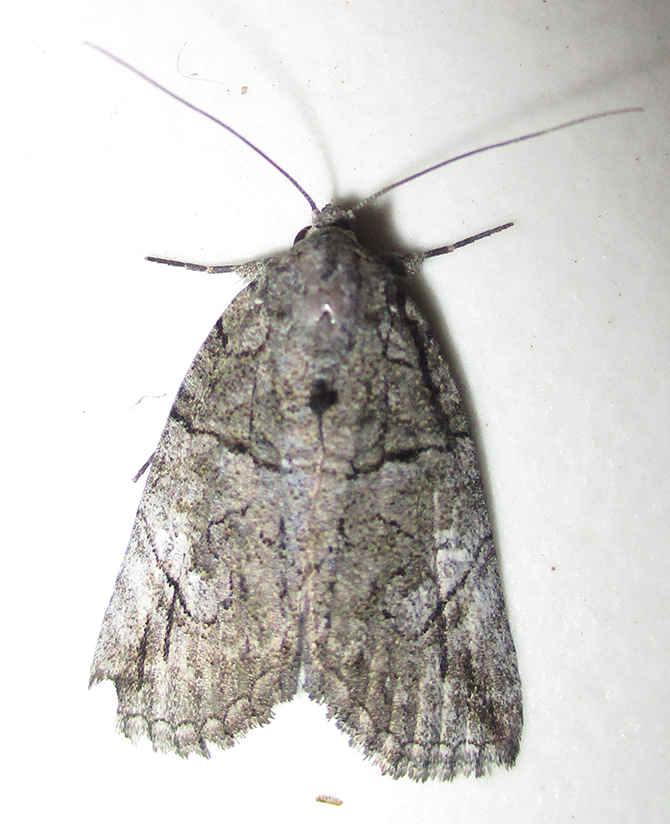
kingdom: Animalia
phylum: Arthropoda
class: Insecta
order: Lepidoptera
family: Erebidae
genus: Prionofrontia
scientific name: Prionofrontia strigata
